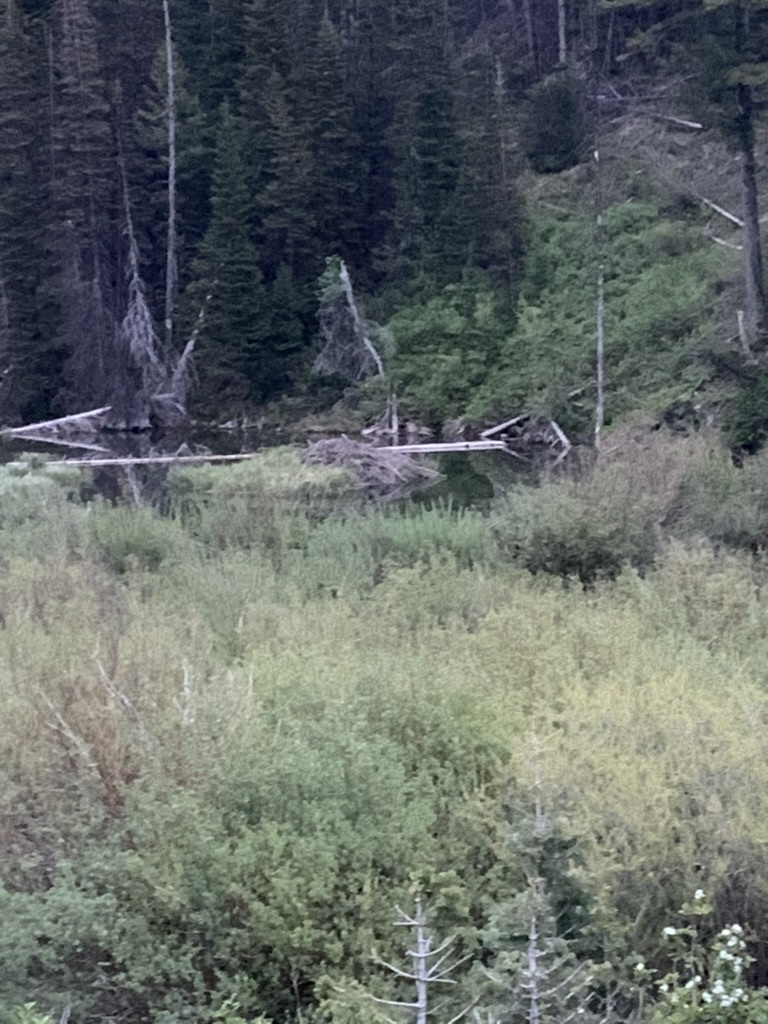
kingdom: Animalia
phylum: Chordata
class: Mammalia
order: Rodentia
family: Castoridae
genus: Castor
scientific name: Castor canadensis
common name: American beaver
